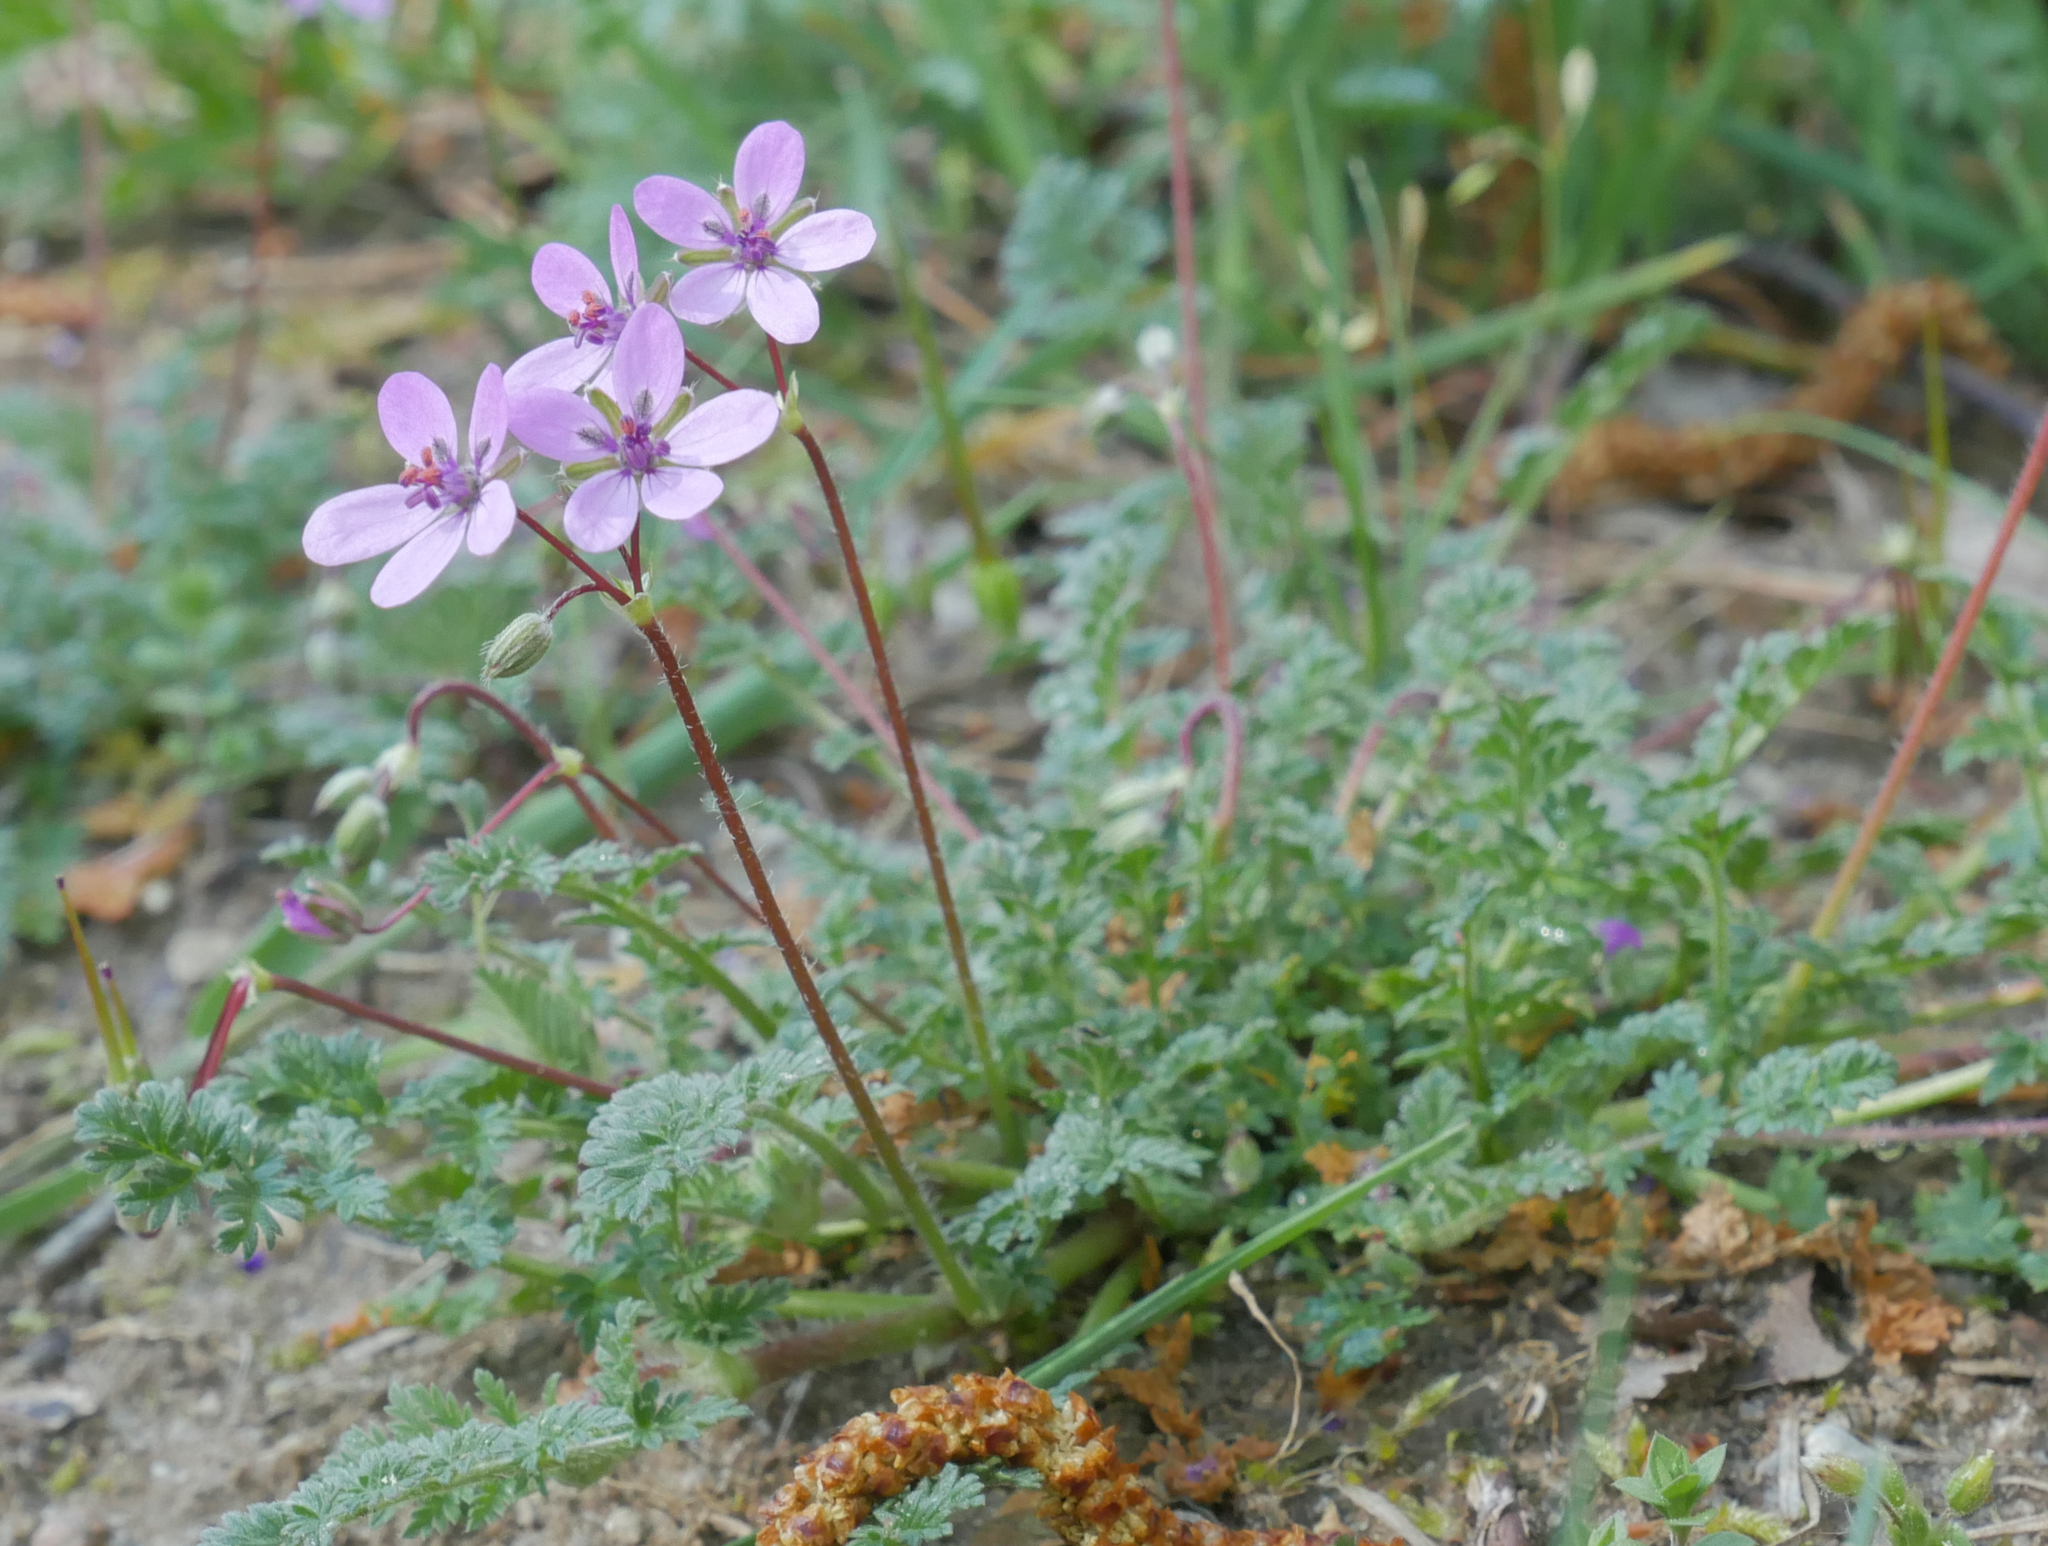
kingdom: Plantae
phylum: Tracheophyta
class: Magnoliopsida
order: Geraniales
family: Geraniaceae
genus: Erodium
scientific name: Erodium cicutarium
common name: Common stork's-bill
